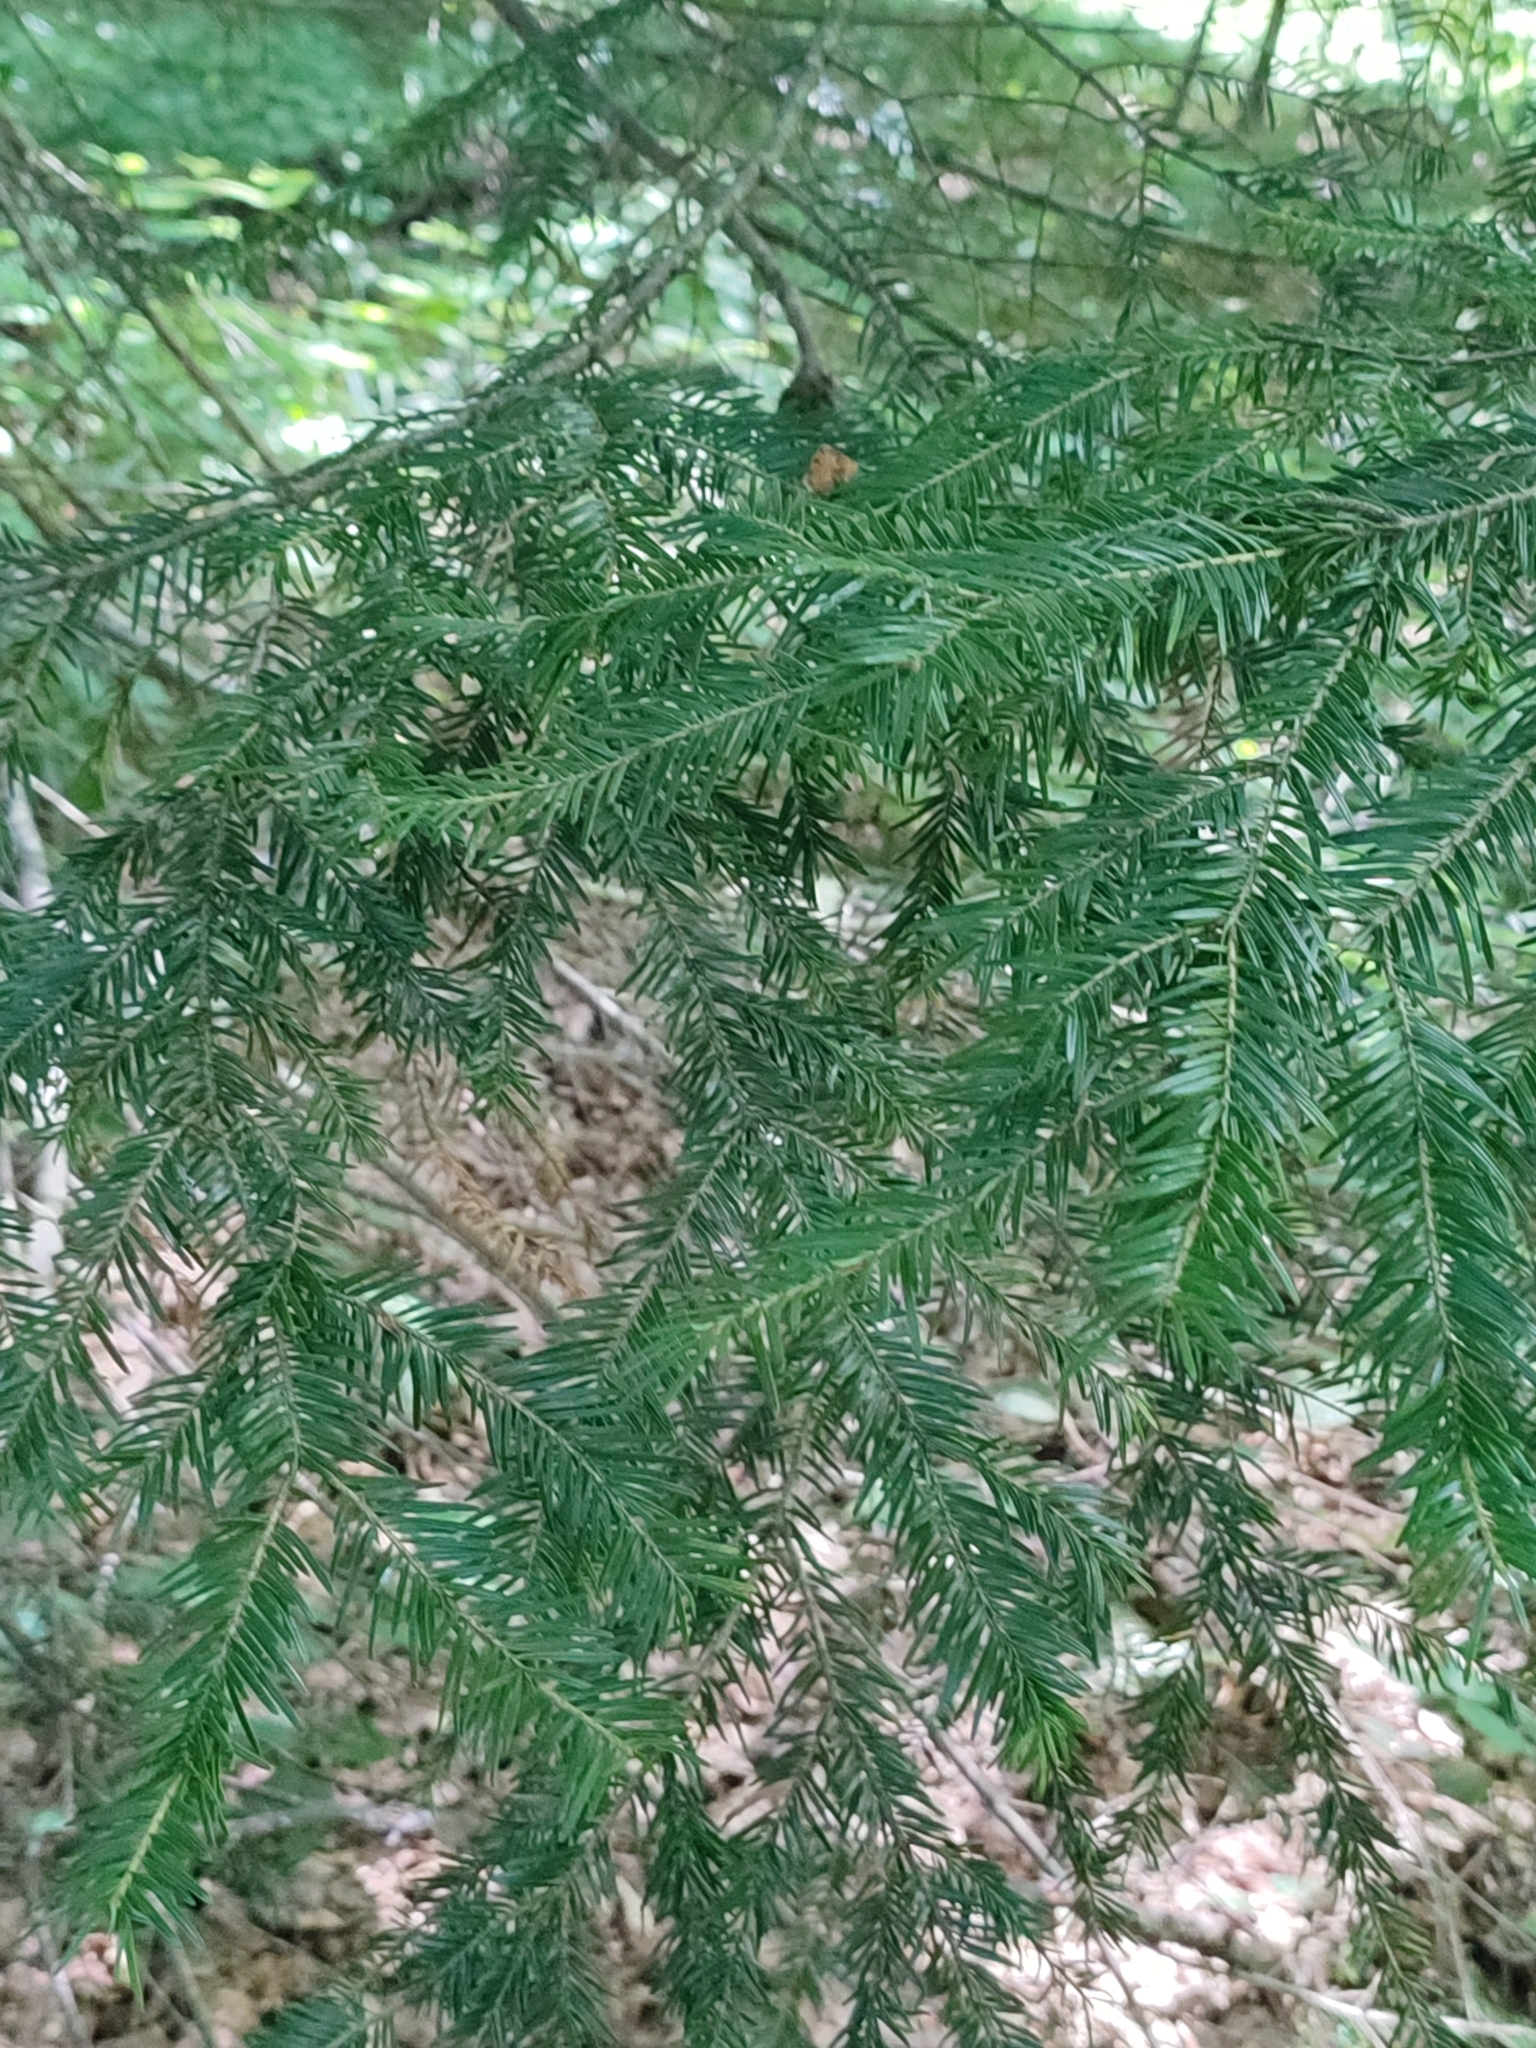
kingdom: Plantae
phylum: Tracheophyta
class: Pinopsida
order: Pinales
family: Pinaceae
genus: Abies
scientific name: Abies alba
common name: Silver fir
